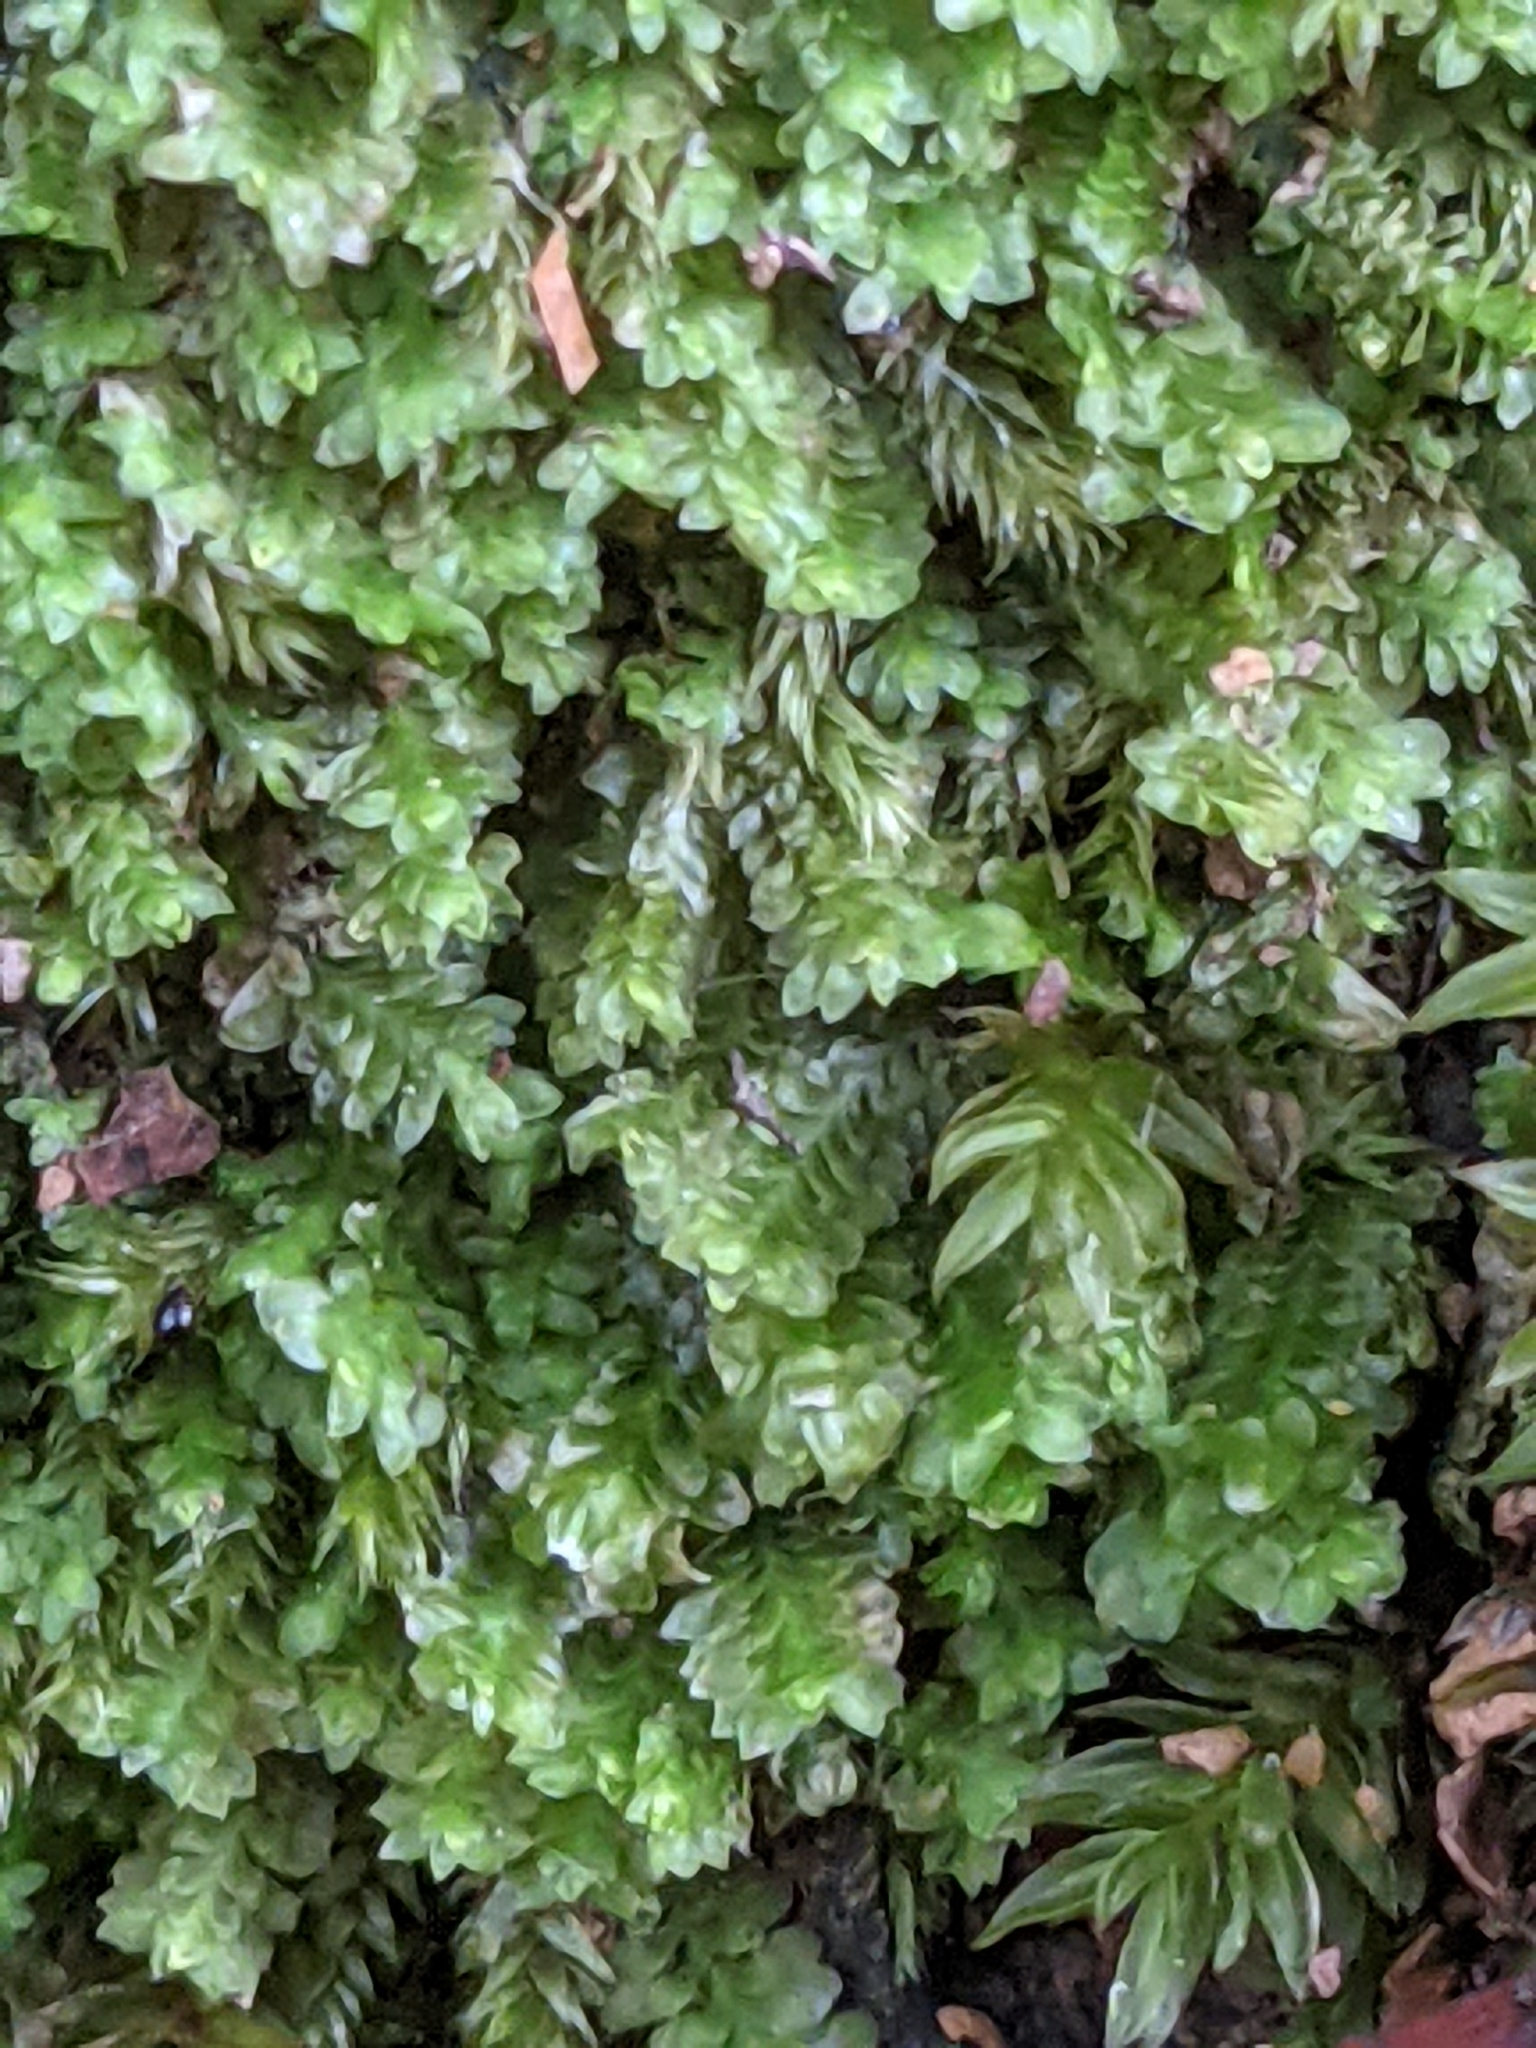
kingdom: Plantae
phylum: Marchantiophyta
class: Jungermanniopsida
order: Jungermanniales
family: Scapaniaceae
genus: Diplophyllum
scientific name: Diplophyllum albicans
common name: White earwort
